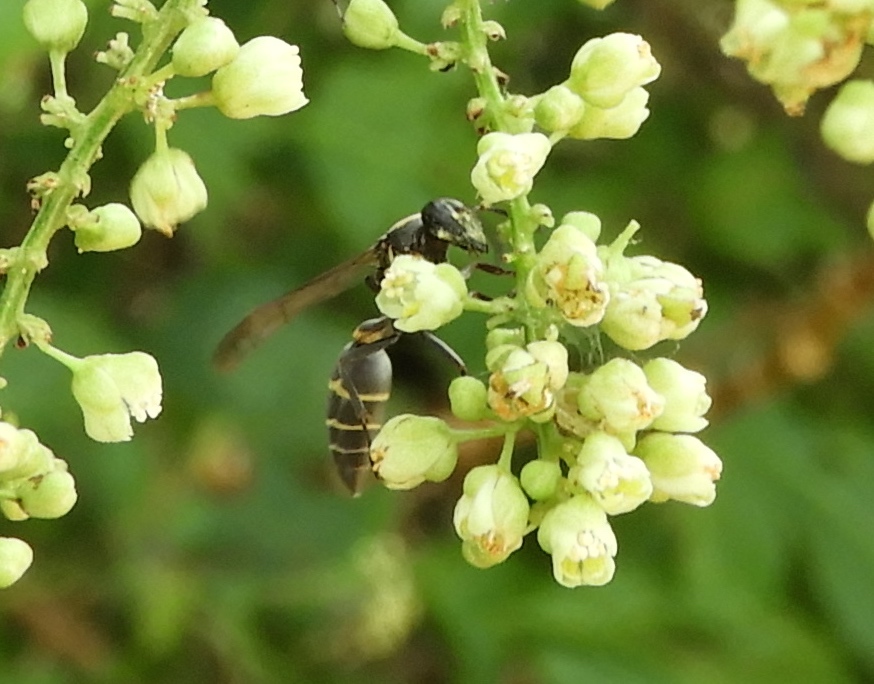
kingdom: Animalia
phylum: Arthropoda
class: Insecta
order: Hymenoptera
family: Vespidae
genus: Myrapetra
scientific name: Myrapetra
